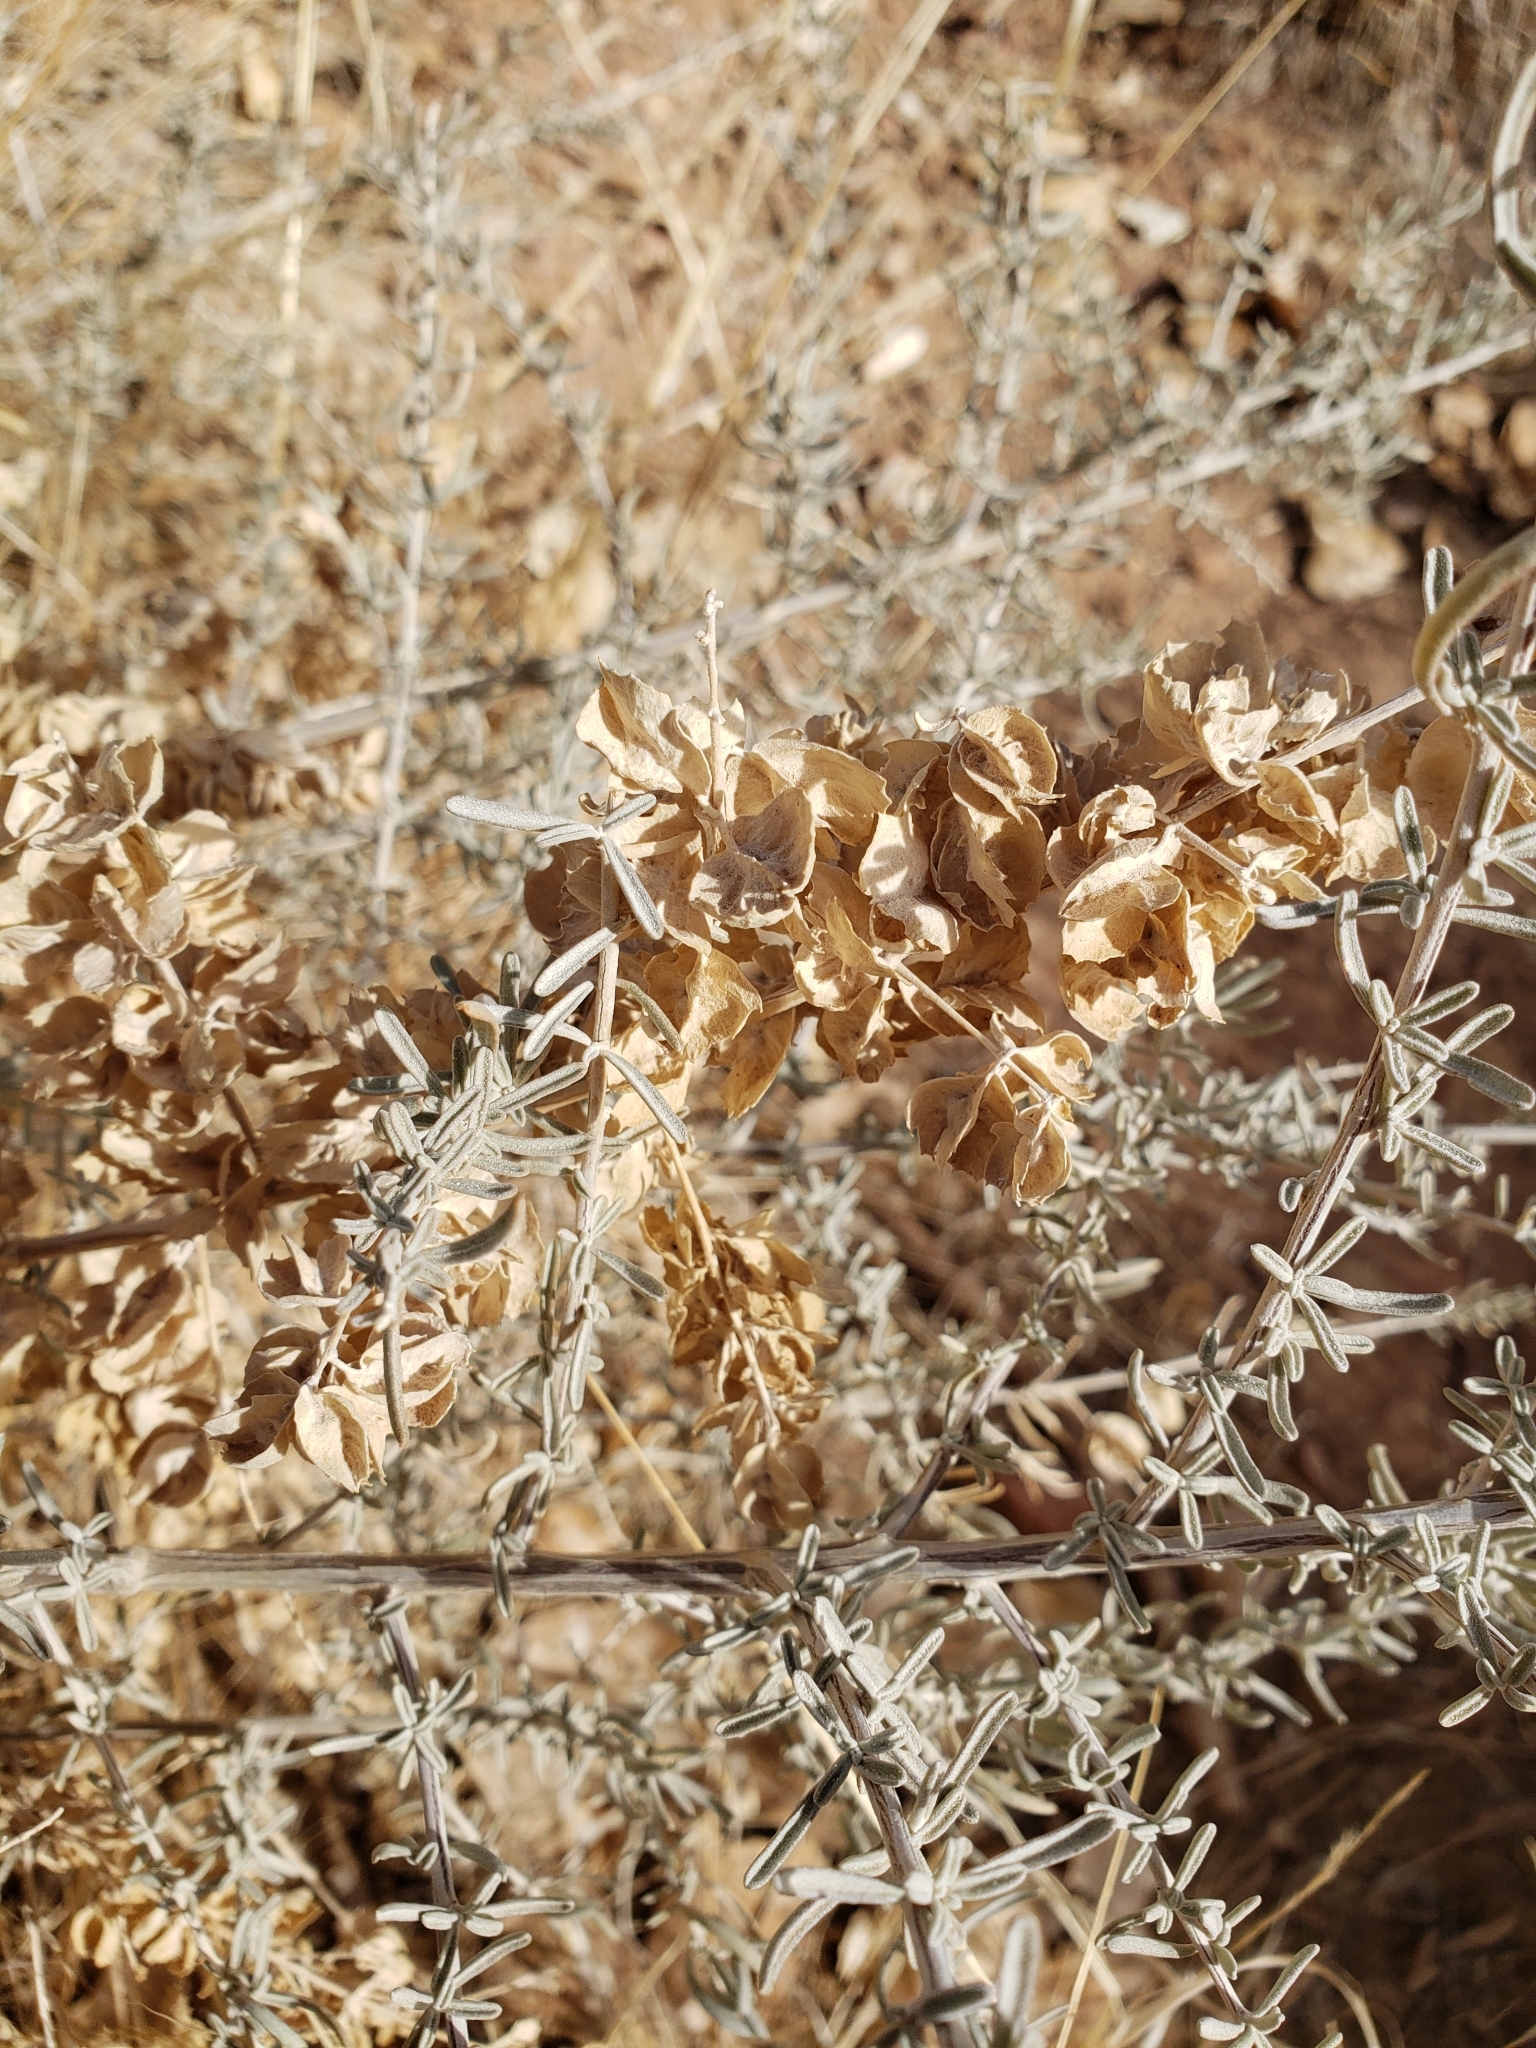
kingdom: Plantae
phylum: Tracheophyta
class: Magnoliopsida
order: Caryophyllales
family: Amaranthaceae
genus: Atriplex
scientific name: Atriplex canescens
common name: Four-wing saltbush
